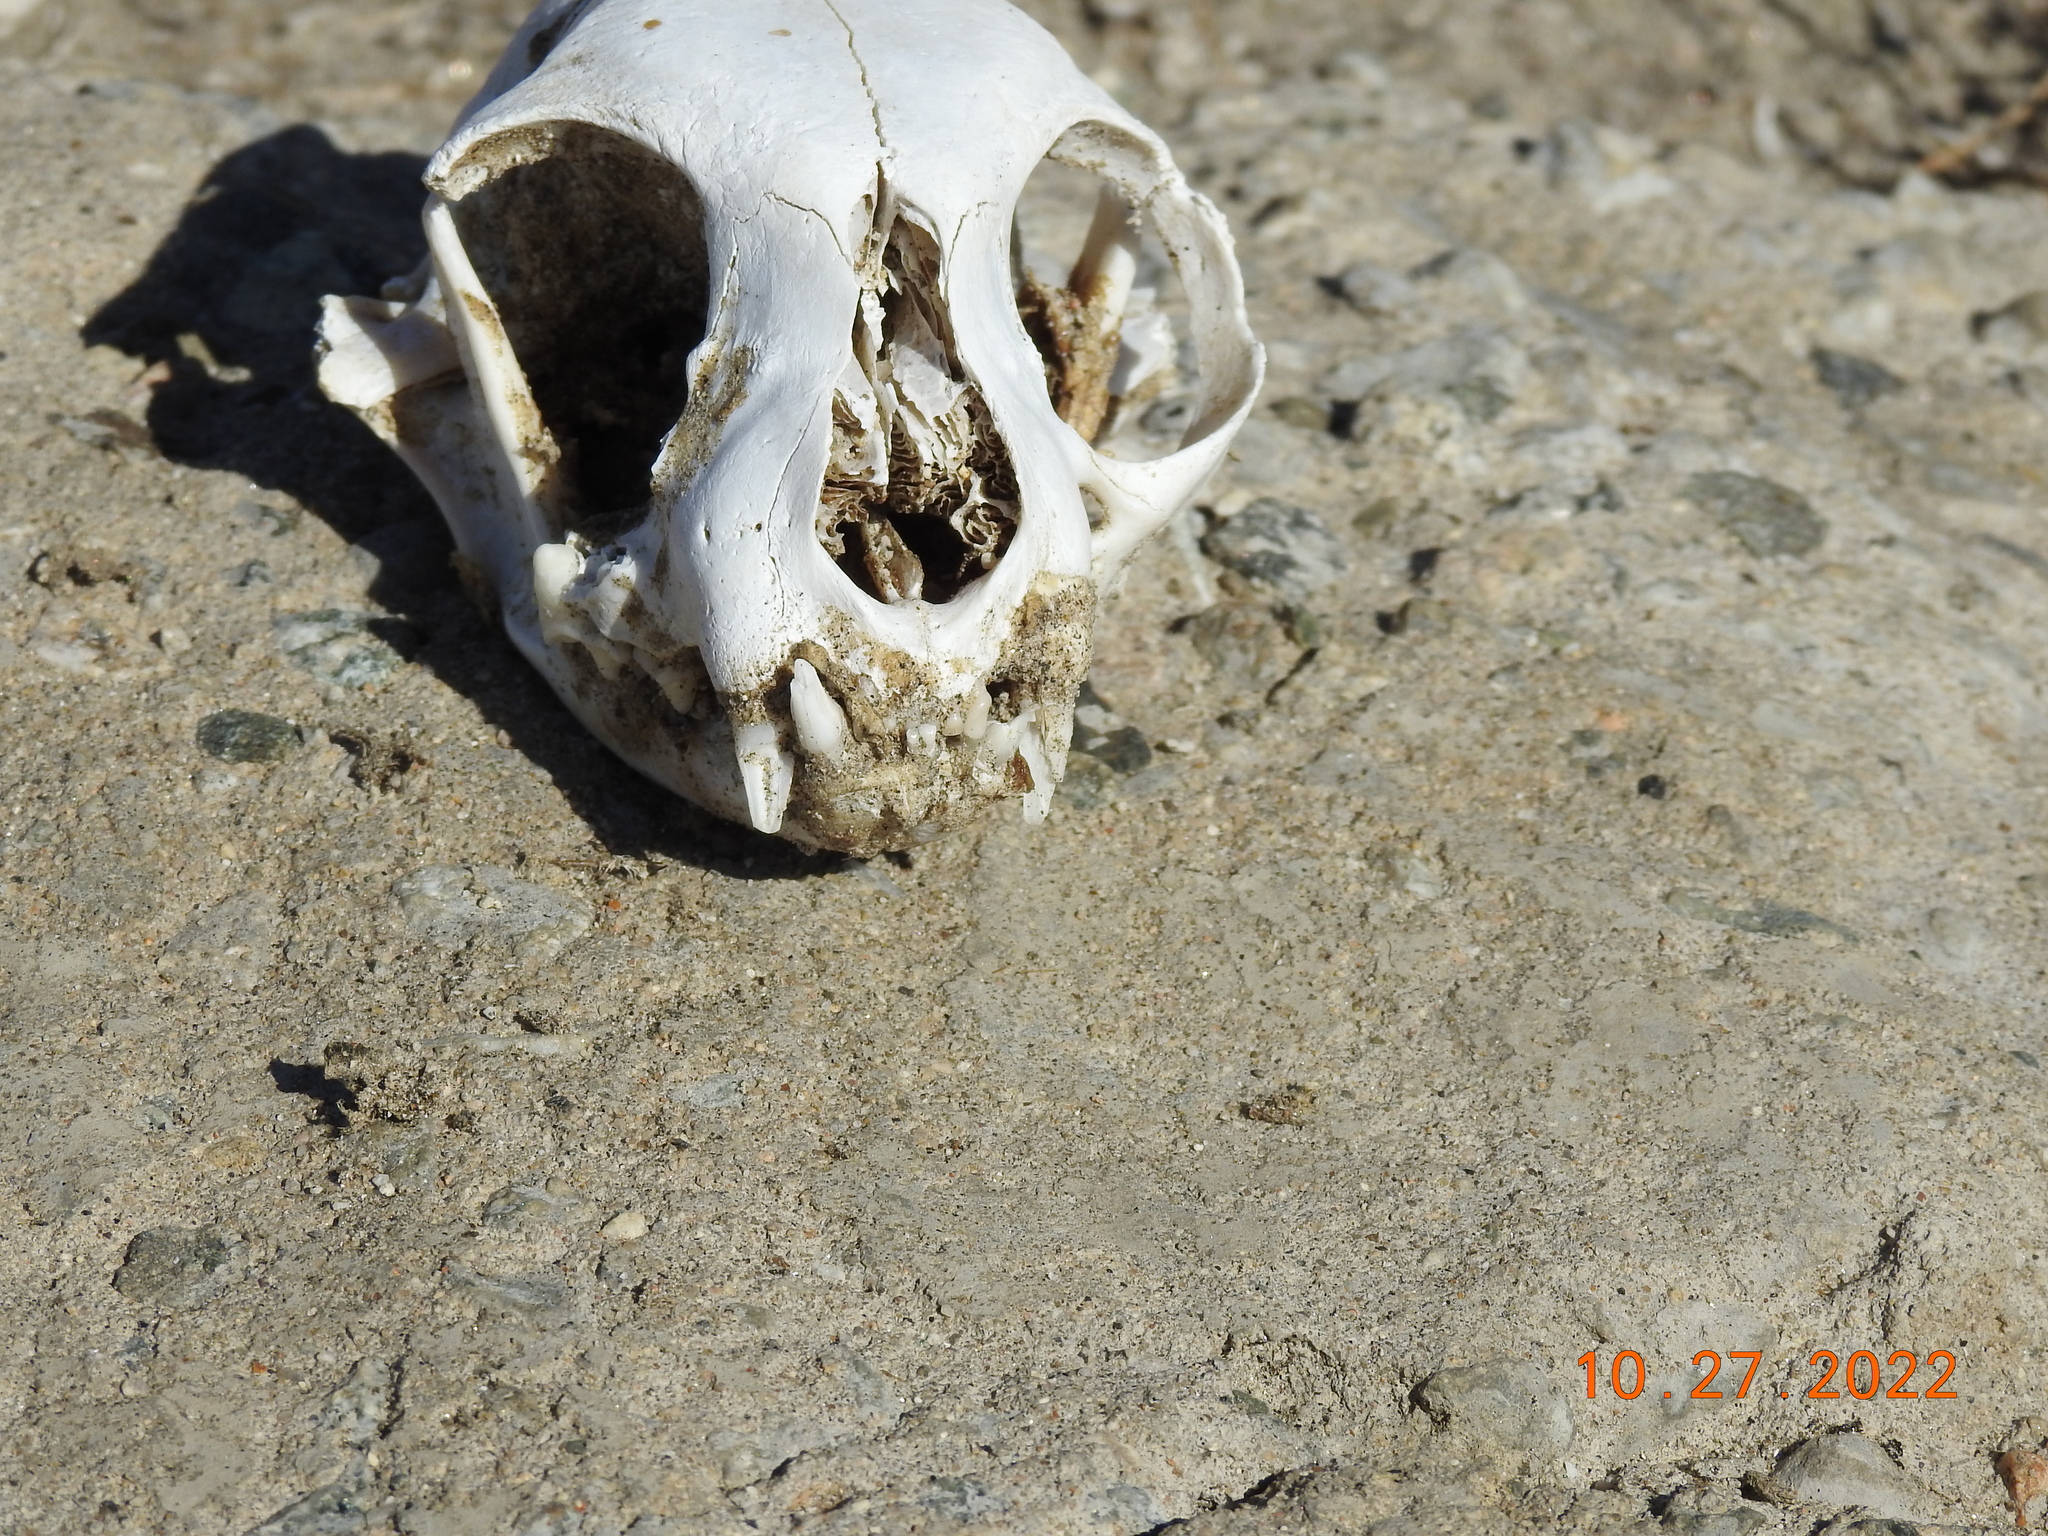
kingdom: Animalia
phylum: Chordata
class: Mammalia
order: Carnivora
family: Felidae
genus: Felis
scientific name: Felis catus
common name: Domestic cat
